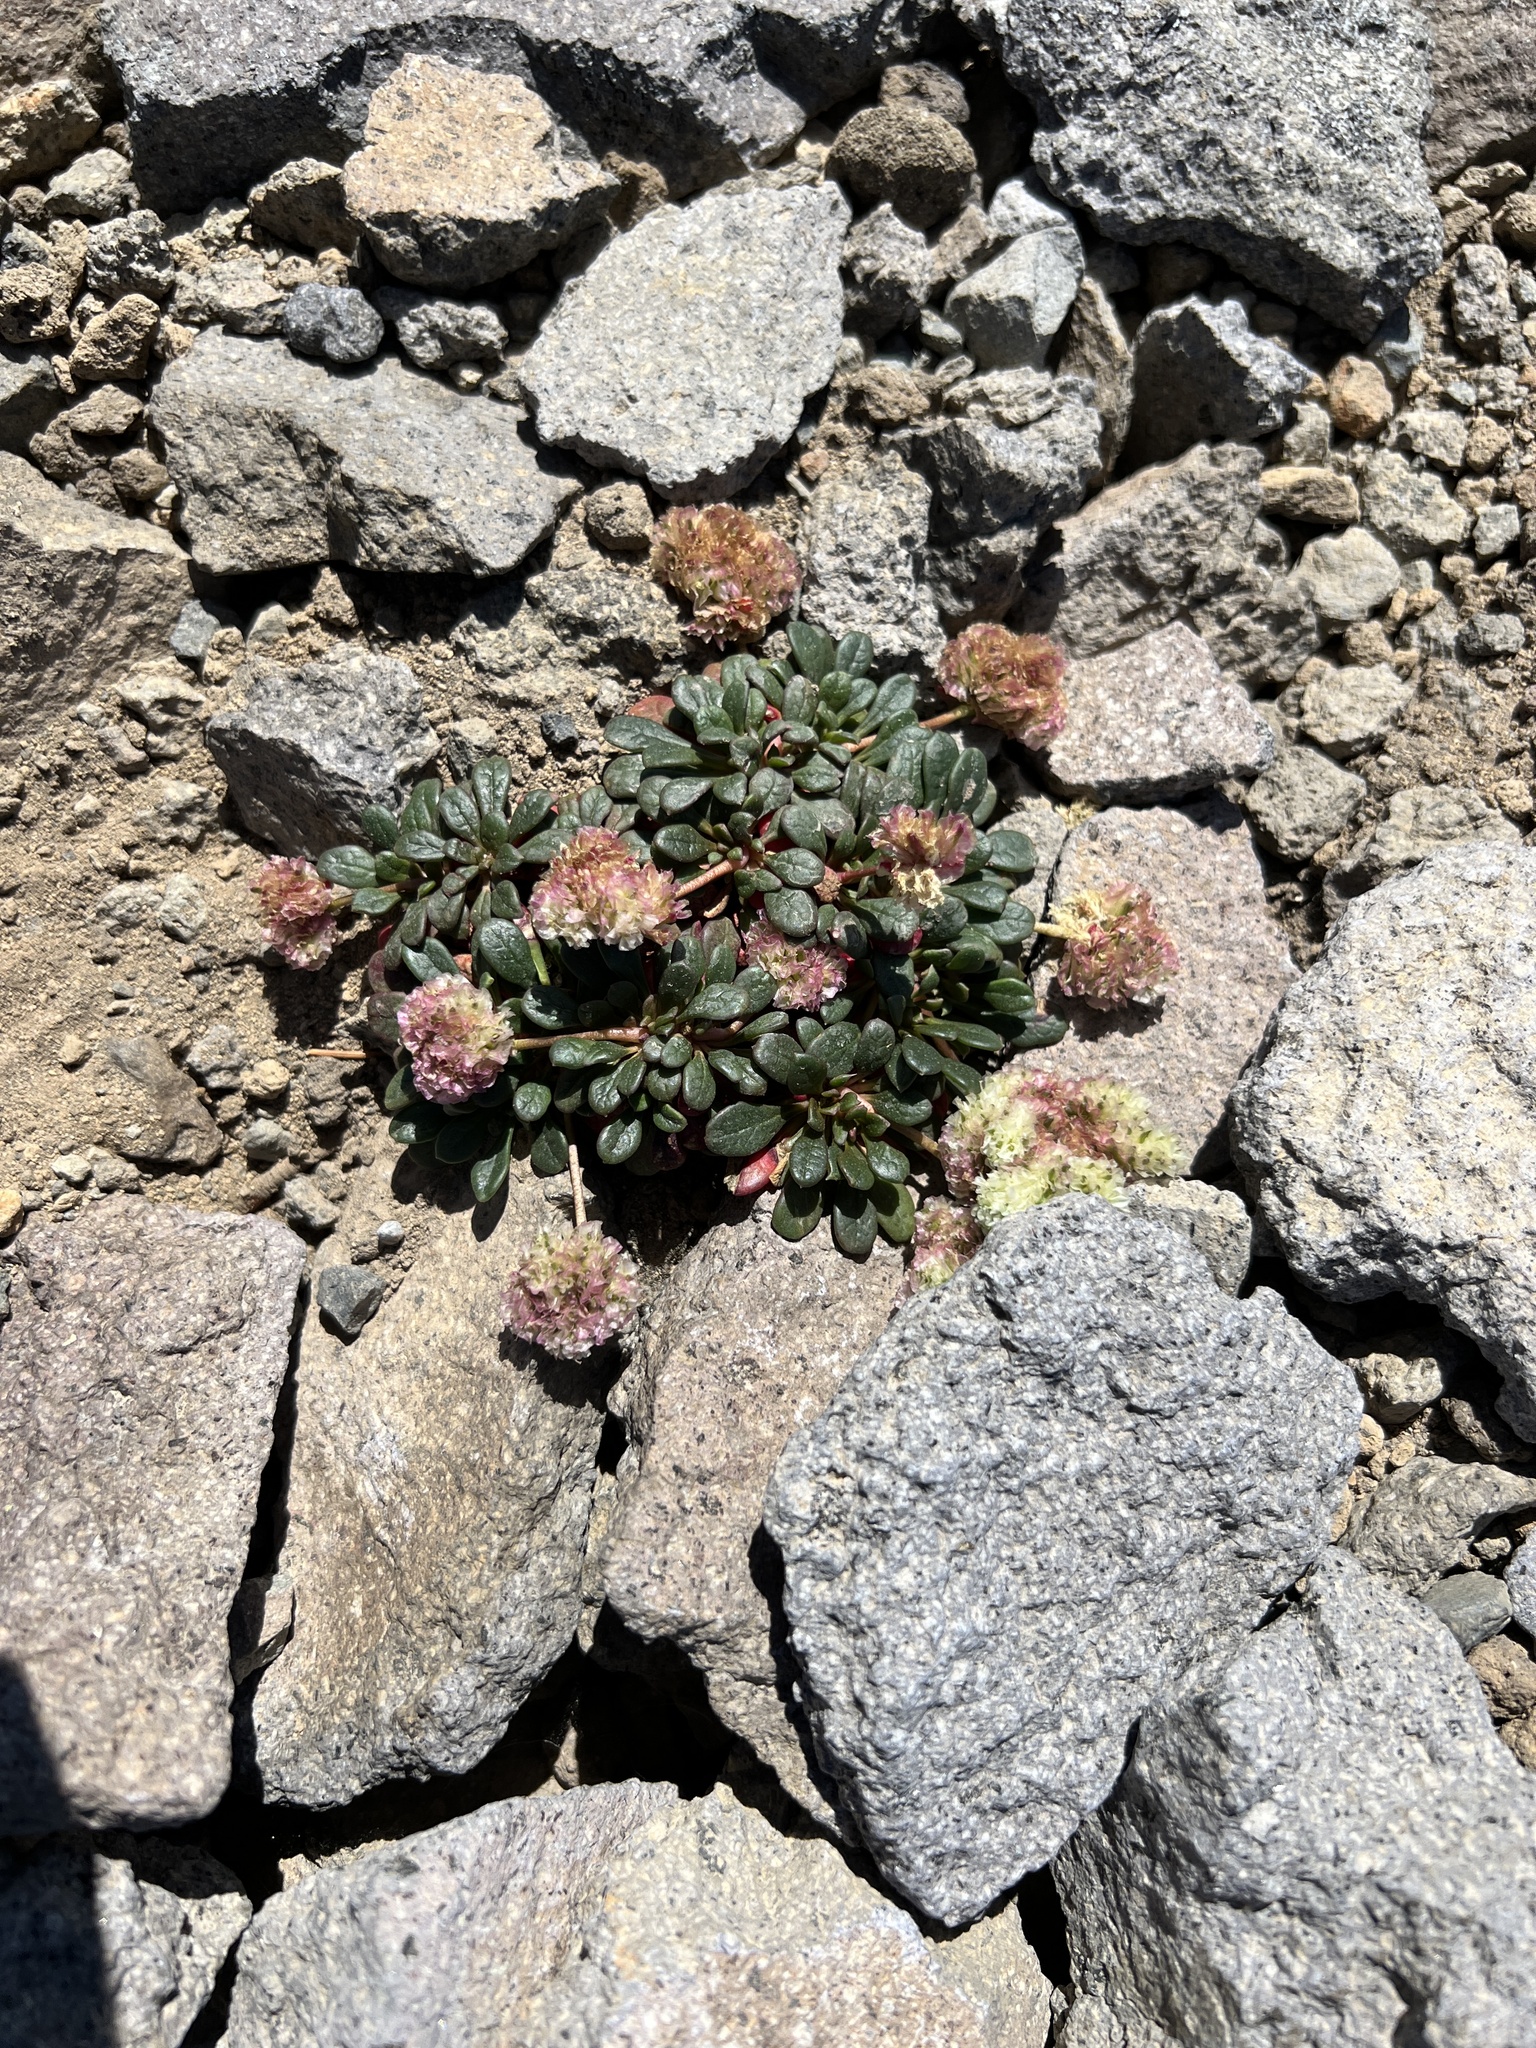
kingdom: Plantae
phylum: Tracheophyta
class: Magnoliopsida
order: Caryophyllales
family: Montiaceae
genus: Calyptridium
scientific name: Calyptridium umbellatum
